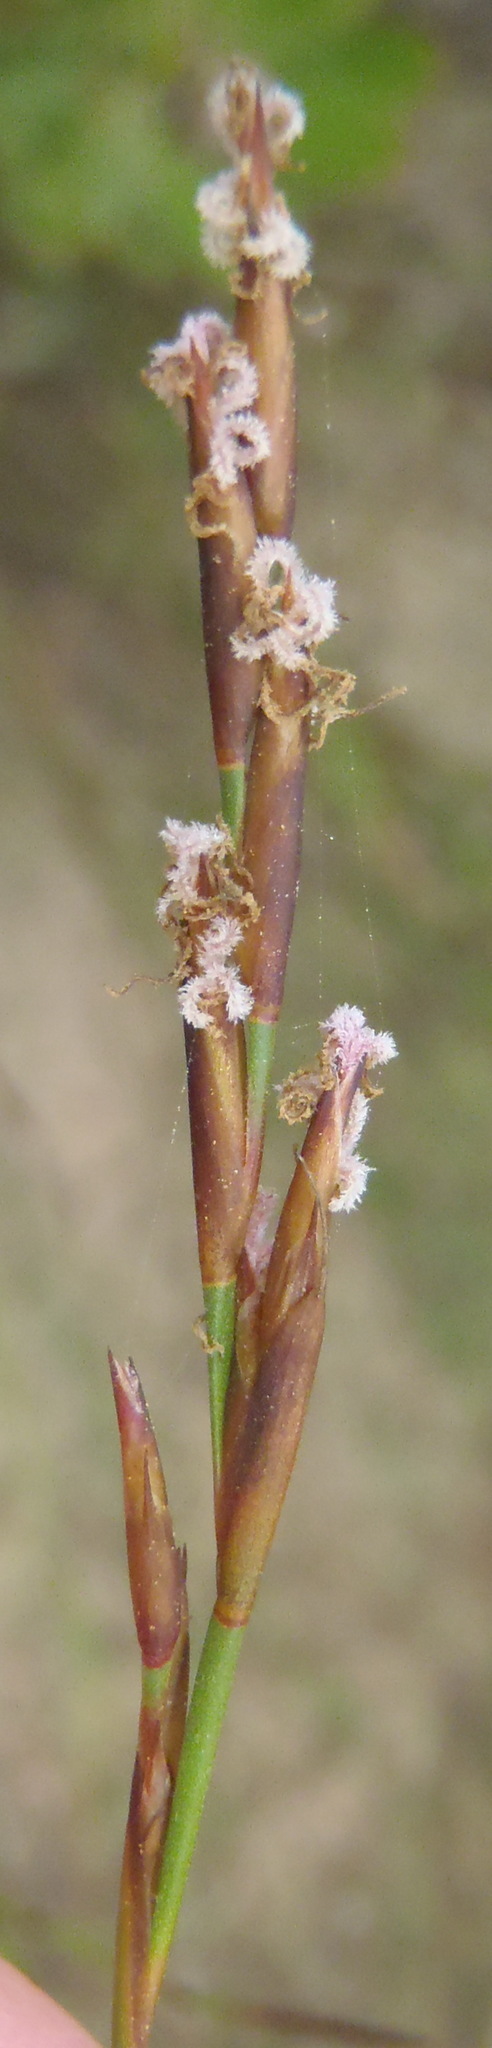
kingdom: Plantae
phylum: Tracheophyta
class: Liliopsida
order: Poales
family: Restionaceae
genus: Restio
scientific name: Restio calcicola
